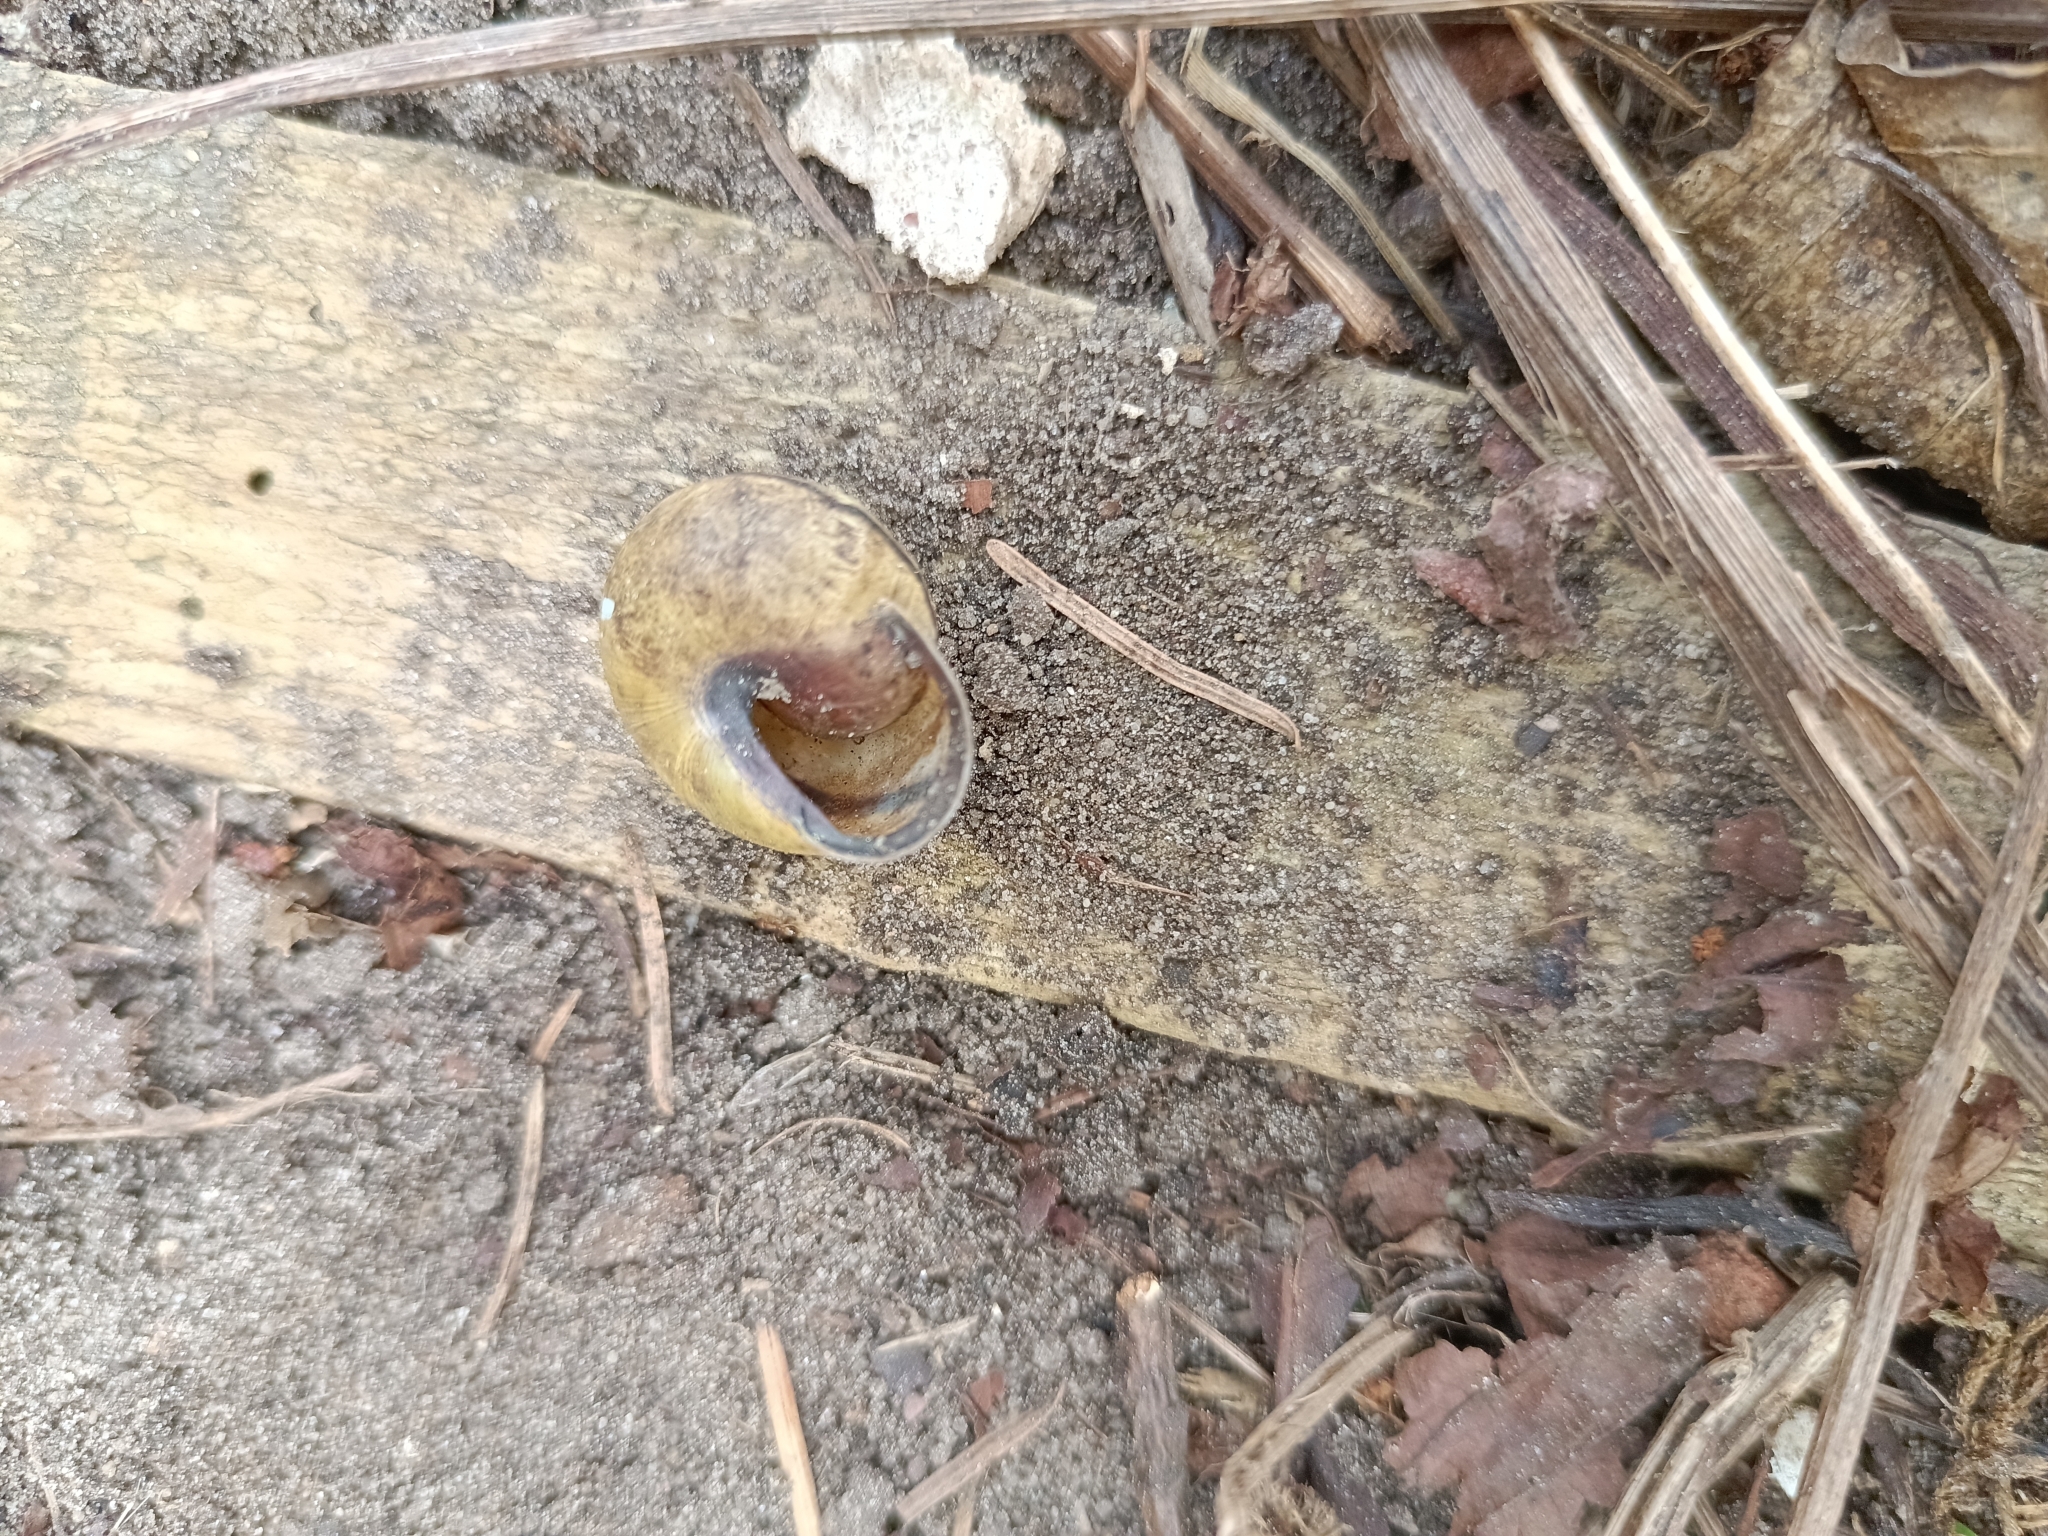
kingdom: Animalia
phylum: Mollusca
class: Gastropoda
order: Stylommatophora
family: Helicidae
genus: Cepaea
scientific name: Cepaea nemoralis
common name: Grovesnail
